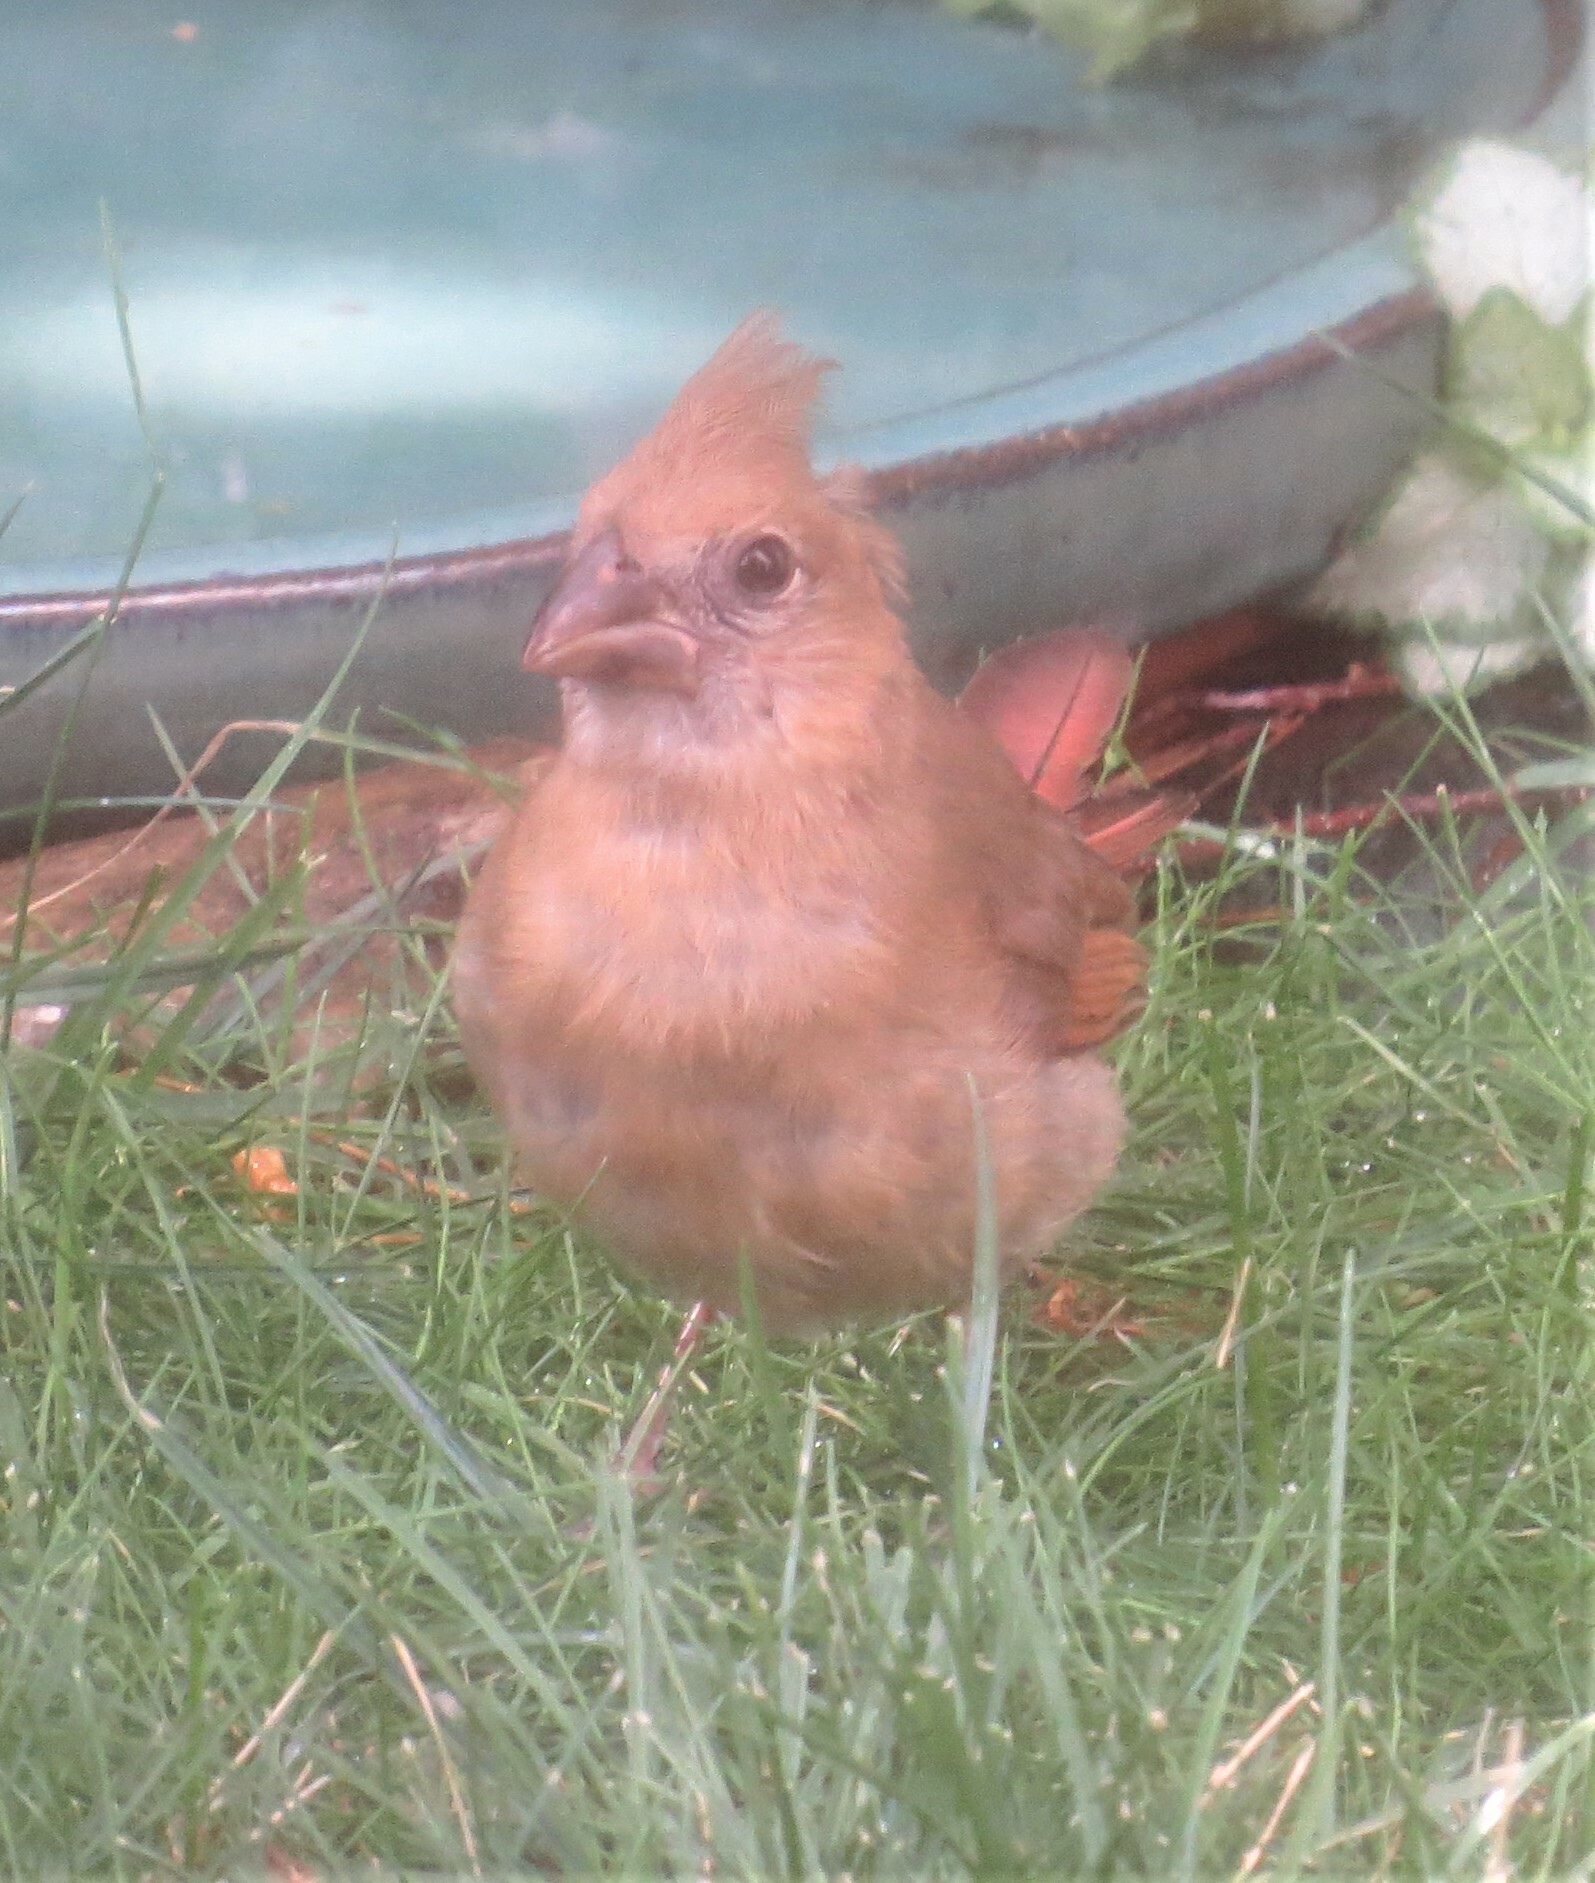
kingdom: Animalia
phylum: Chordata
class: Aves
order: Passeriformes
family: Cardinalidae
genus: Cardinalis
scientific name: Cardinalis cardinalis
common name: Northern cardinal
